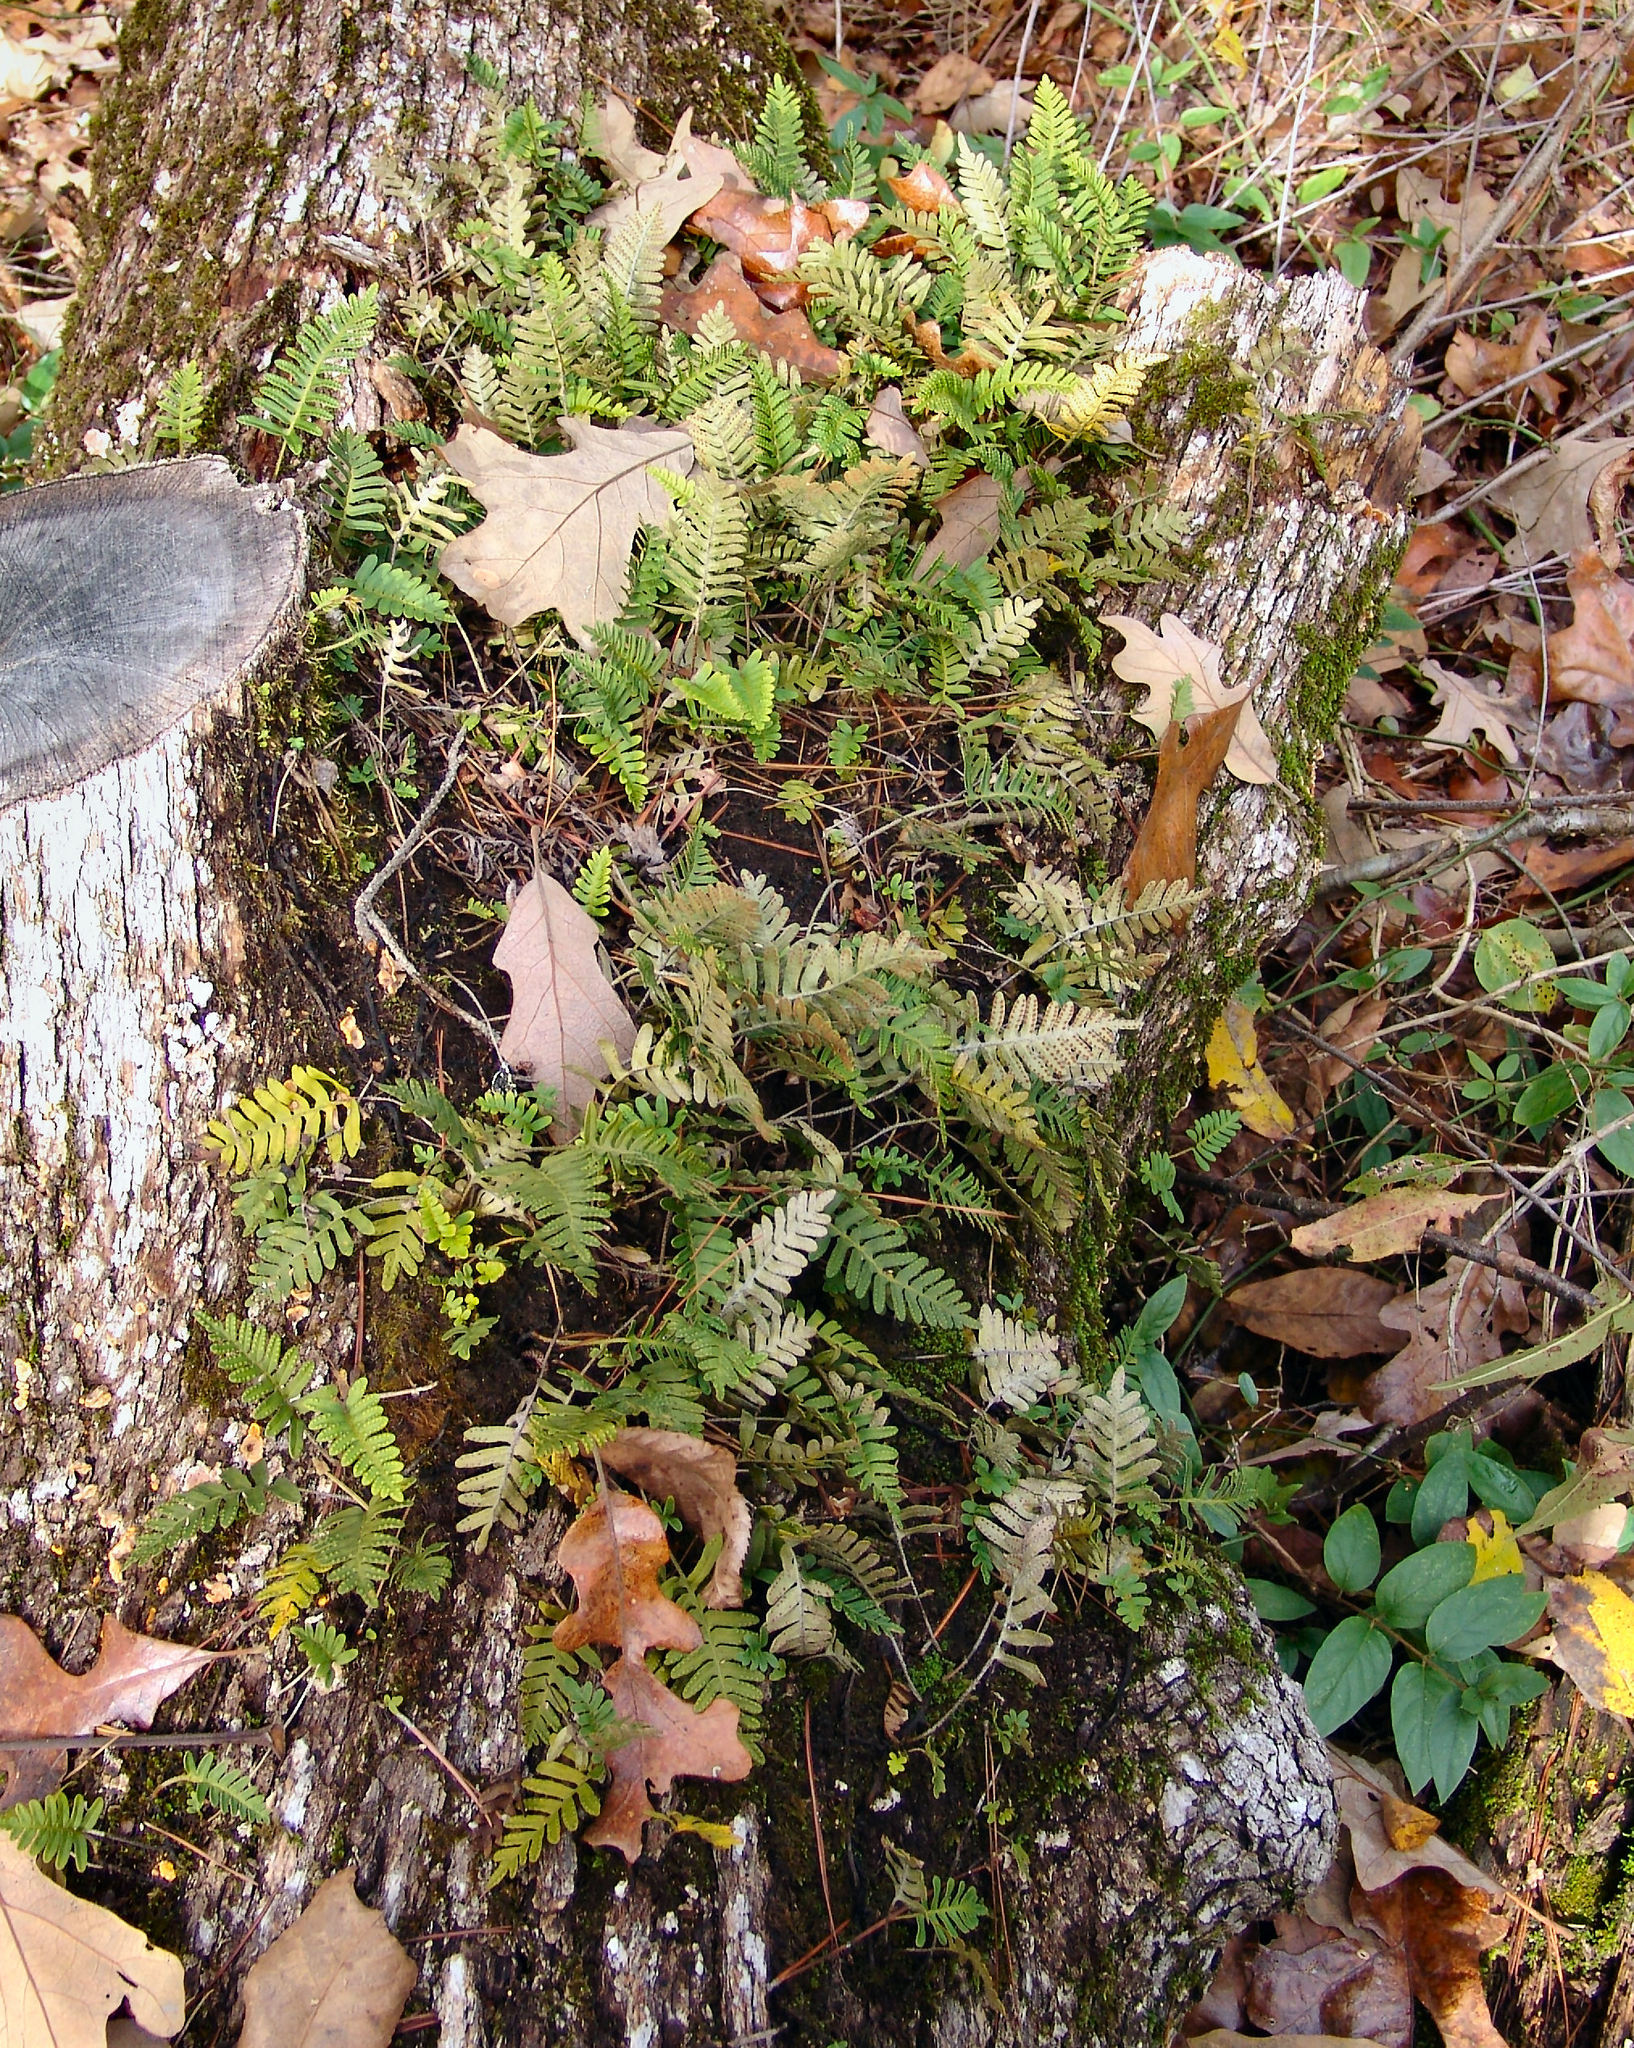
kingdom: Plantae
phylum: Tracheophyta
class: Polypodiopsida
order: Polypodiales
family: Polypodiaceae
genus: Pleopeltis
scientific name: Pleopeltis michauxiana
